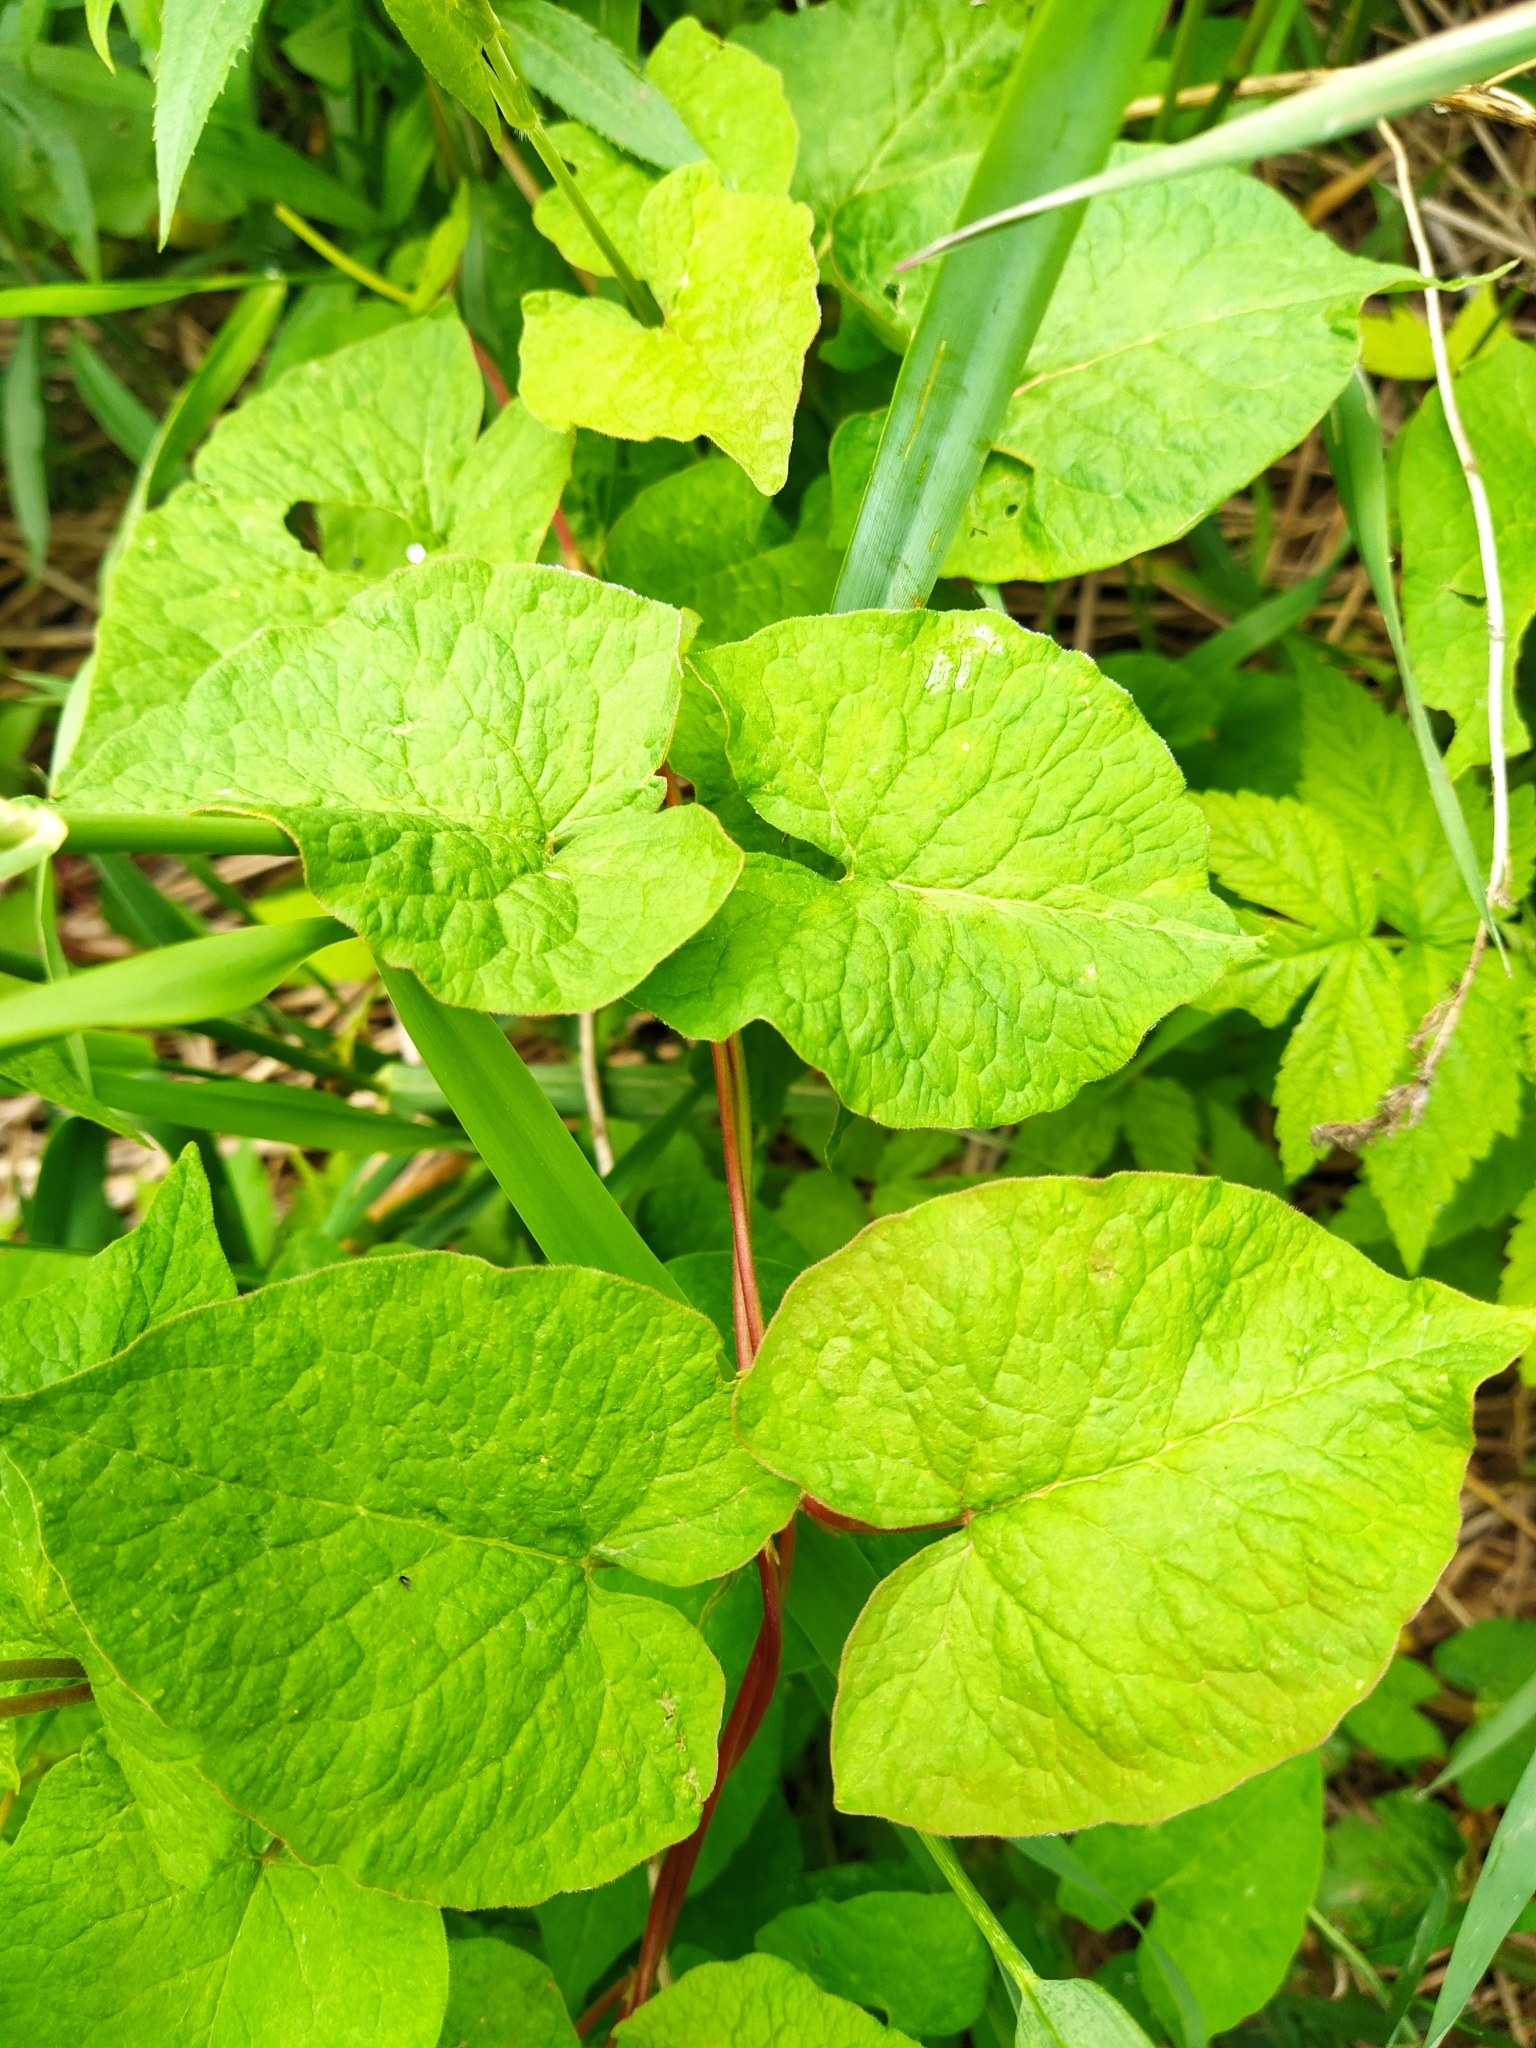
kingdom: Plantae
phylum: Tracheophyta
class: Magnoliopsida
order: Caryophyllales
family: Polygonaceae
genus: Parogonum
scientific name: Parogonum ciliinode
